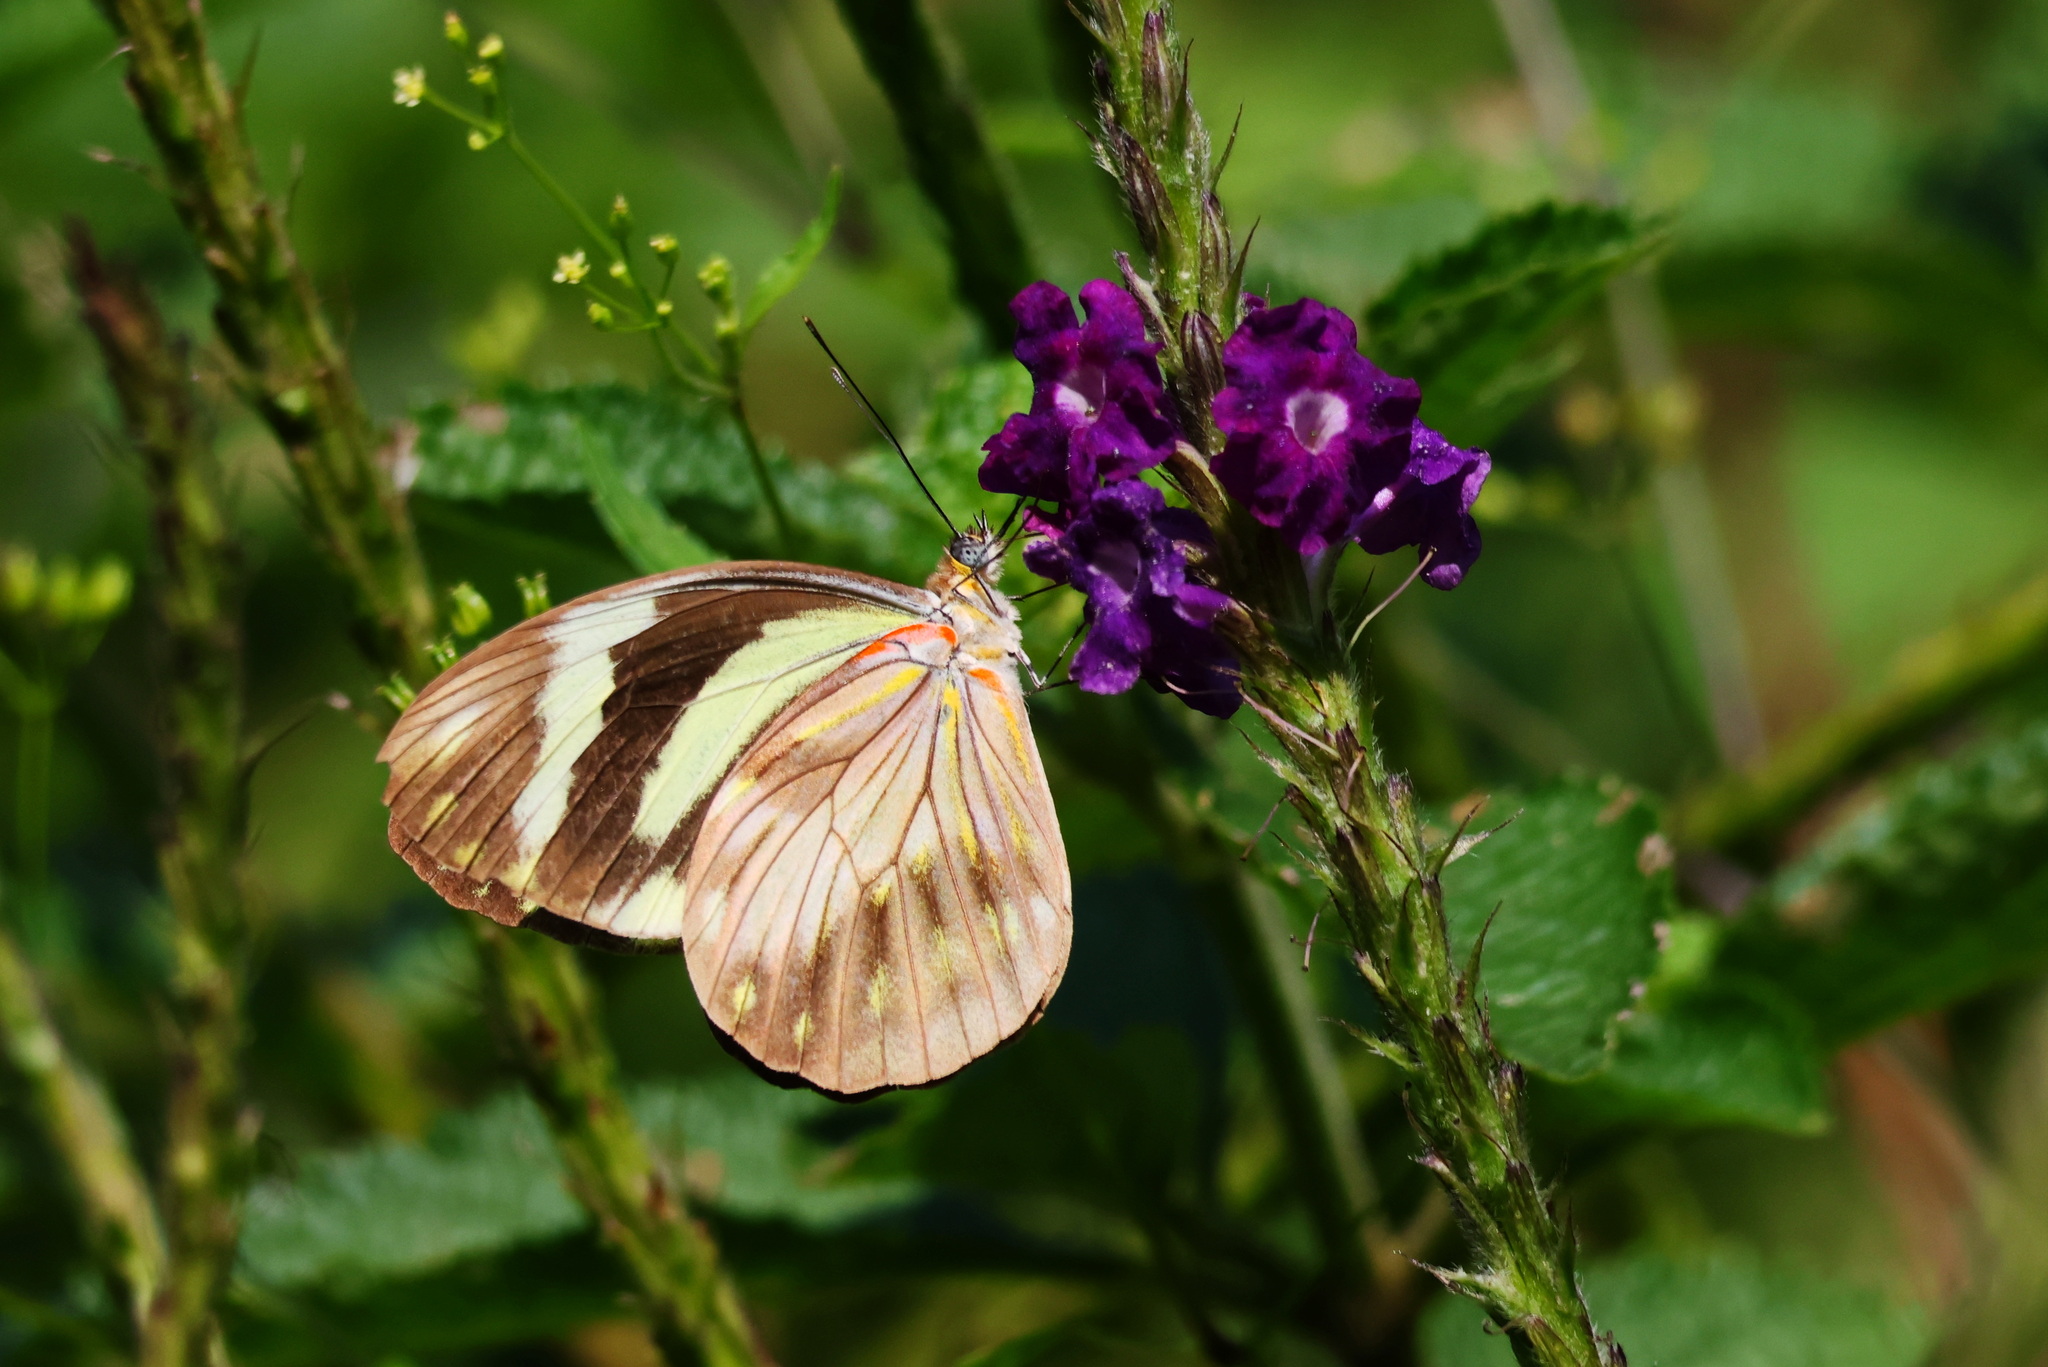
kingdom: Animalia
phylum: Arthropoda
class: Insecta
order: Lepidoptera
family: Pieridae
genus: Pieriballia
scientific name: Pieriballia viardi
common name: Painted white
